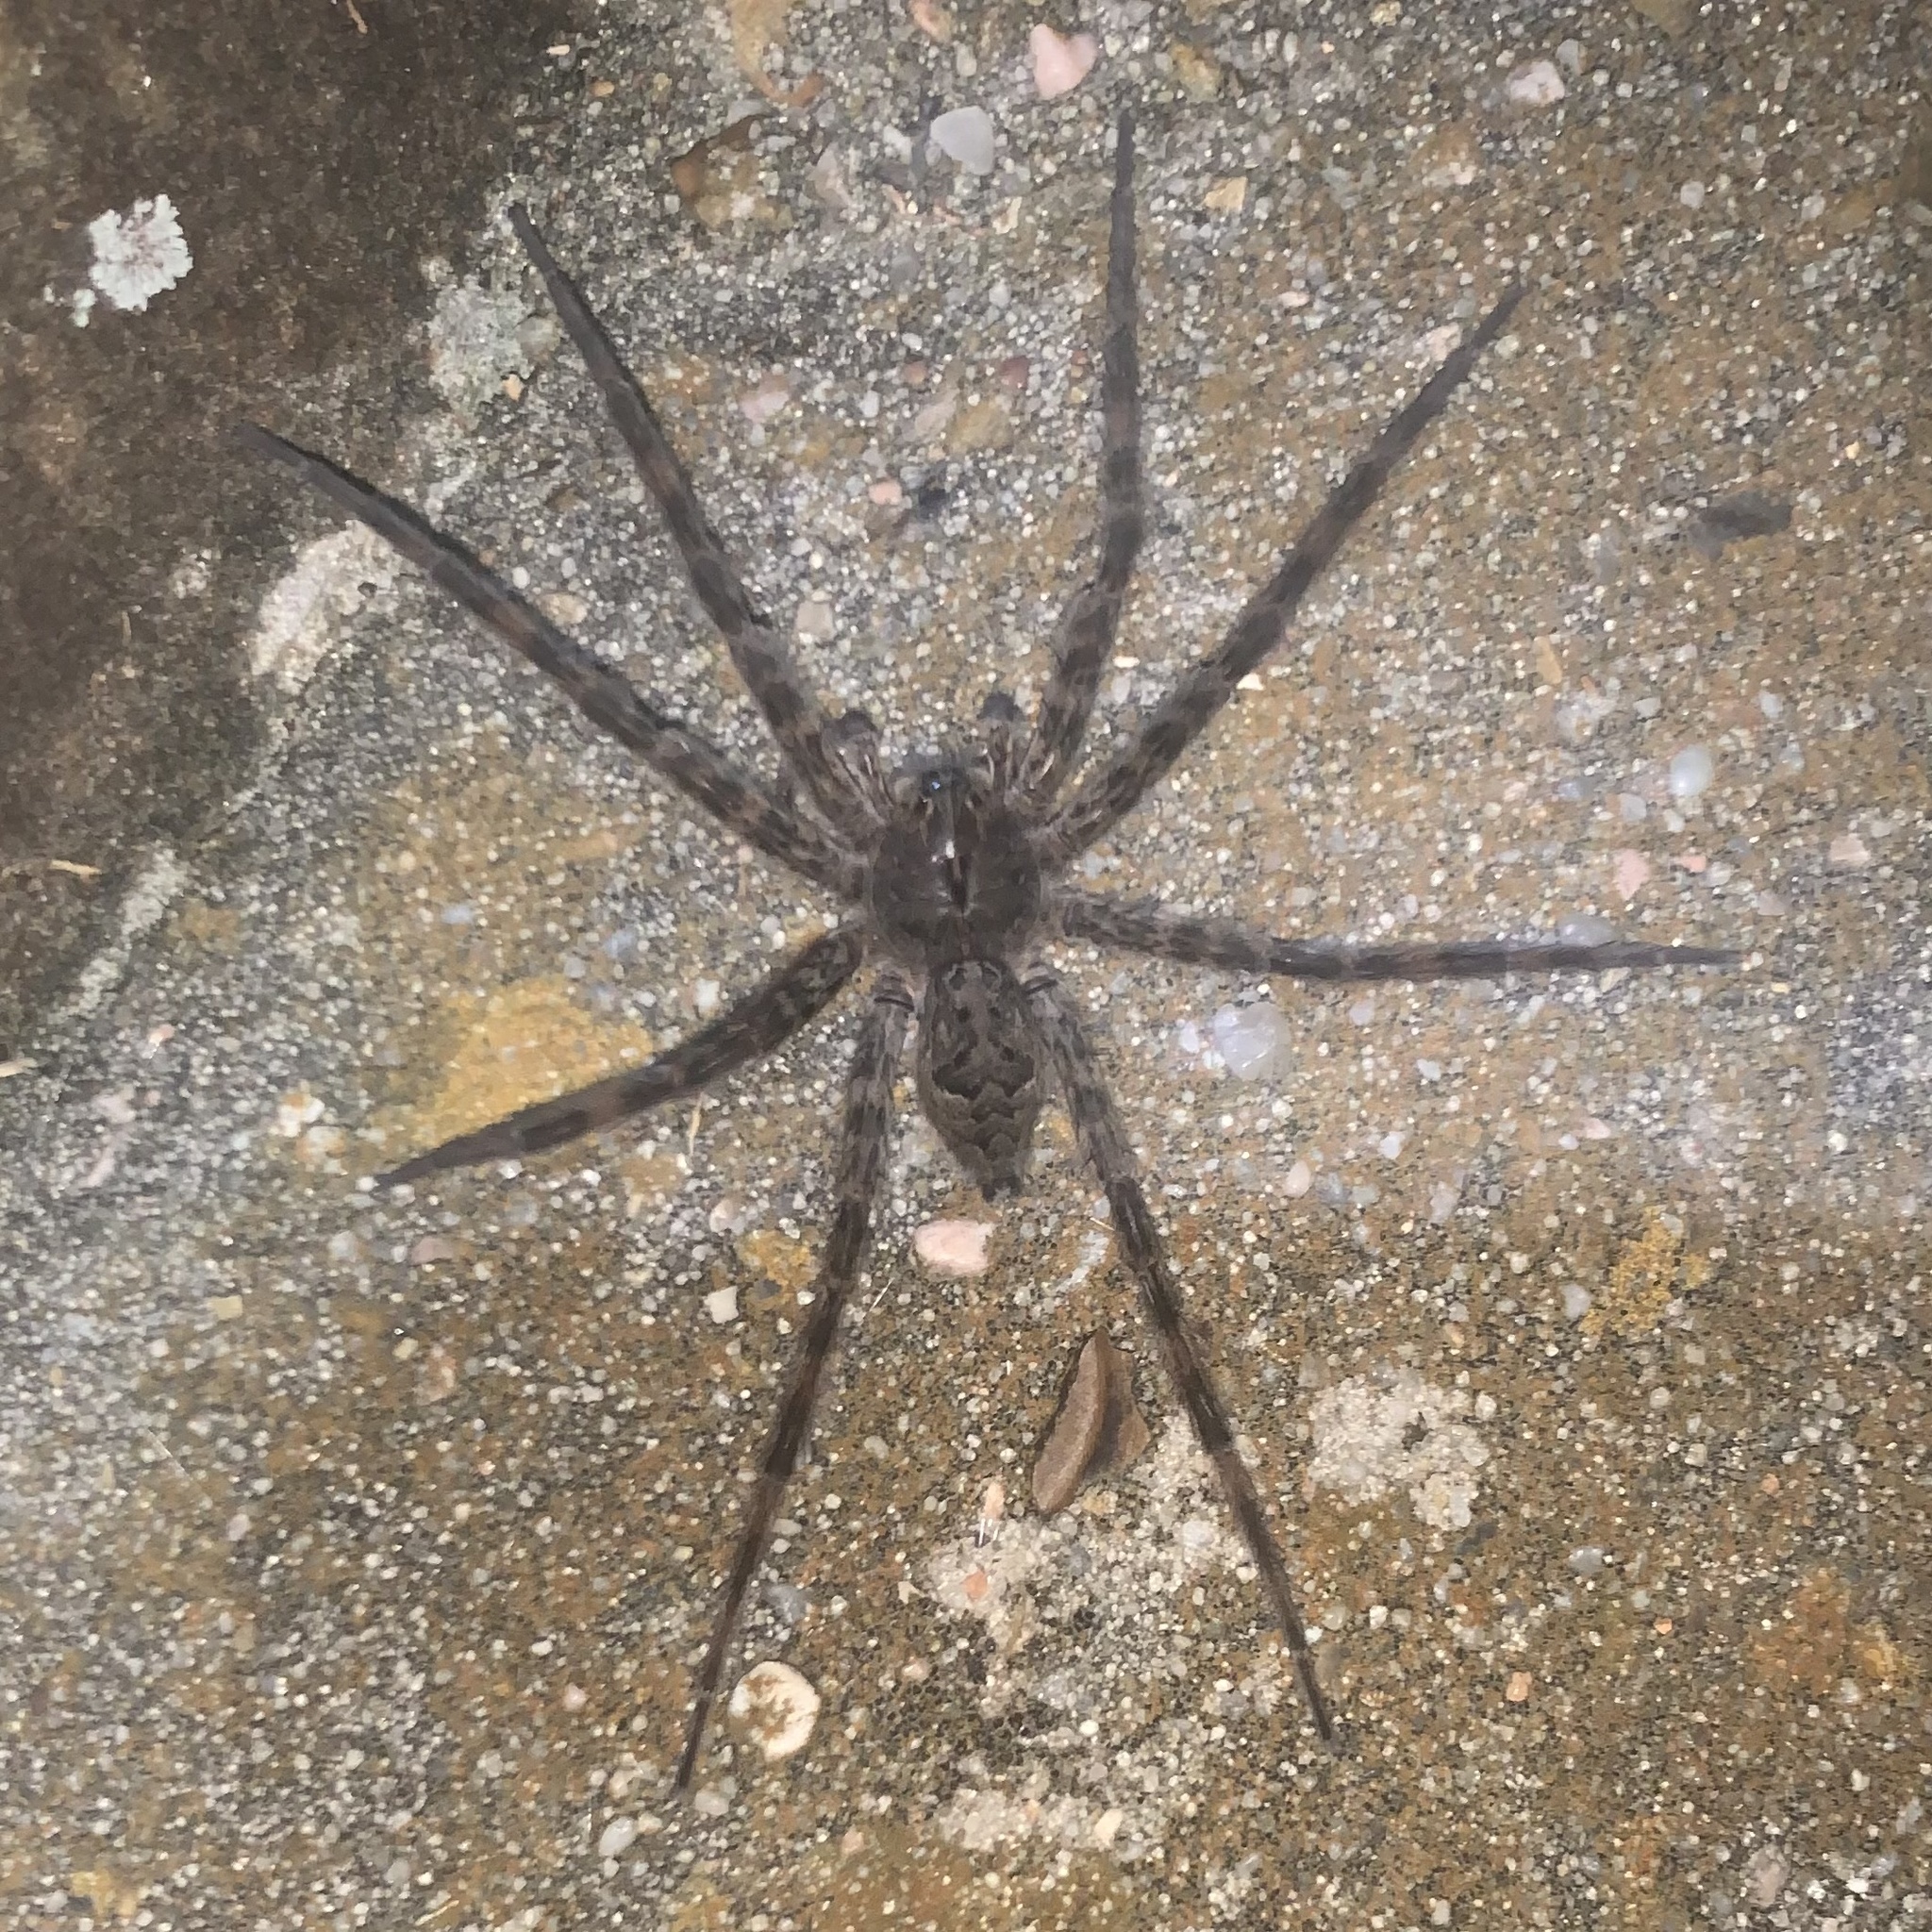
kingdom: Animalia
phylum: Arthropoda
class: Arachnida
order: Araneae
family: Pisauridae
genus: Dolomedes
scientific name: Dolomedes tenebrosus
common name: Dark fishing spider
